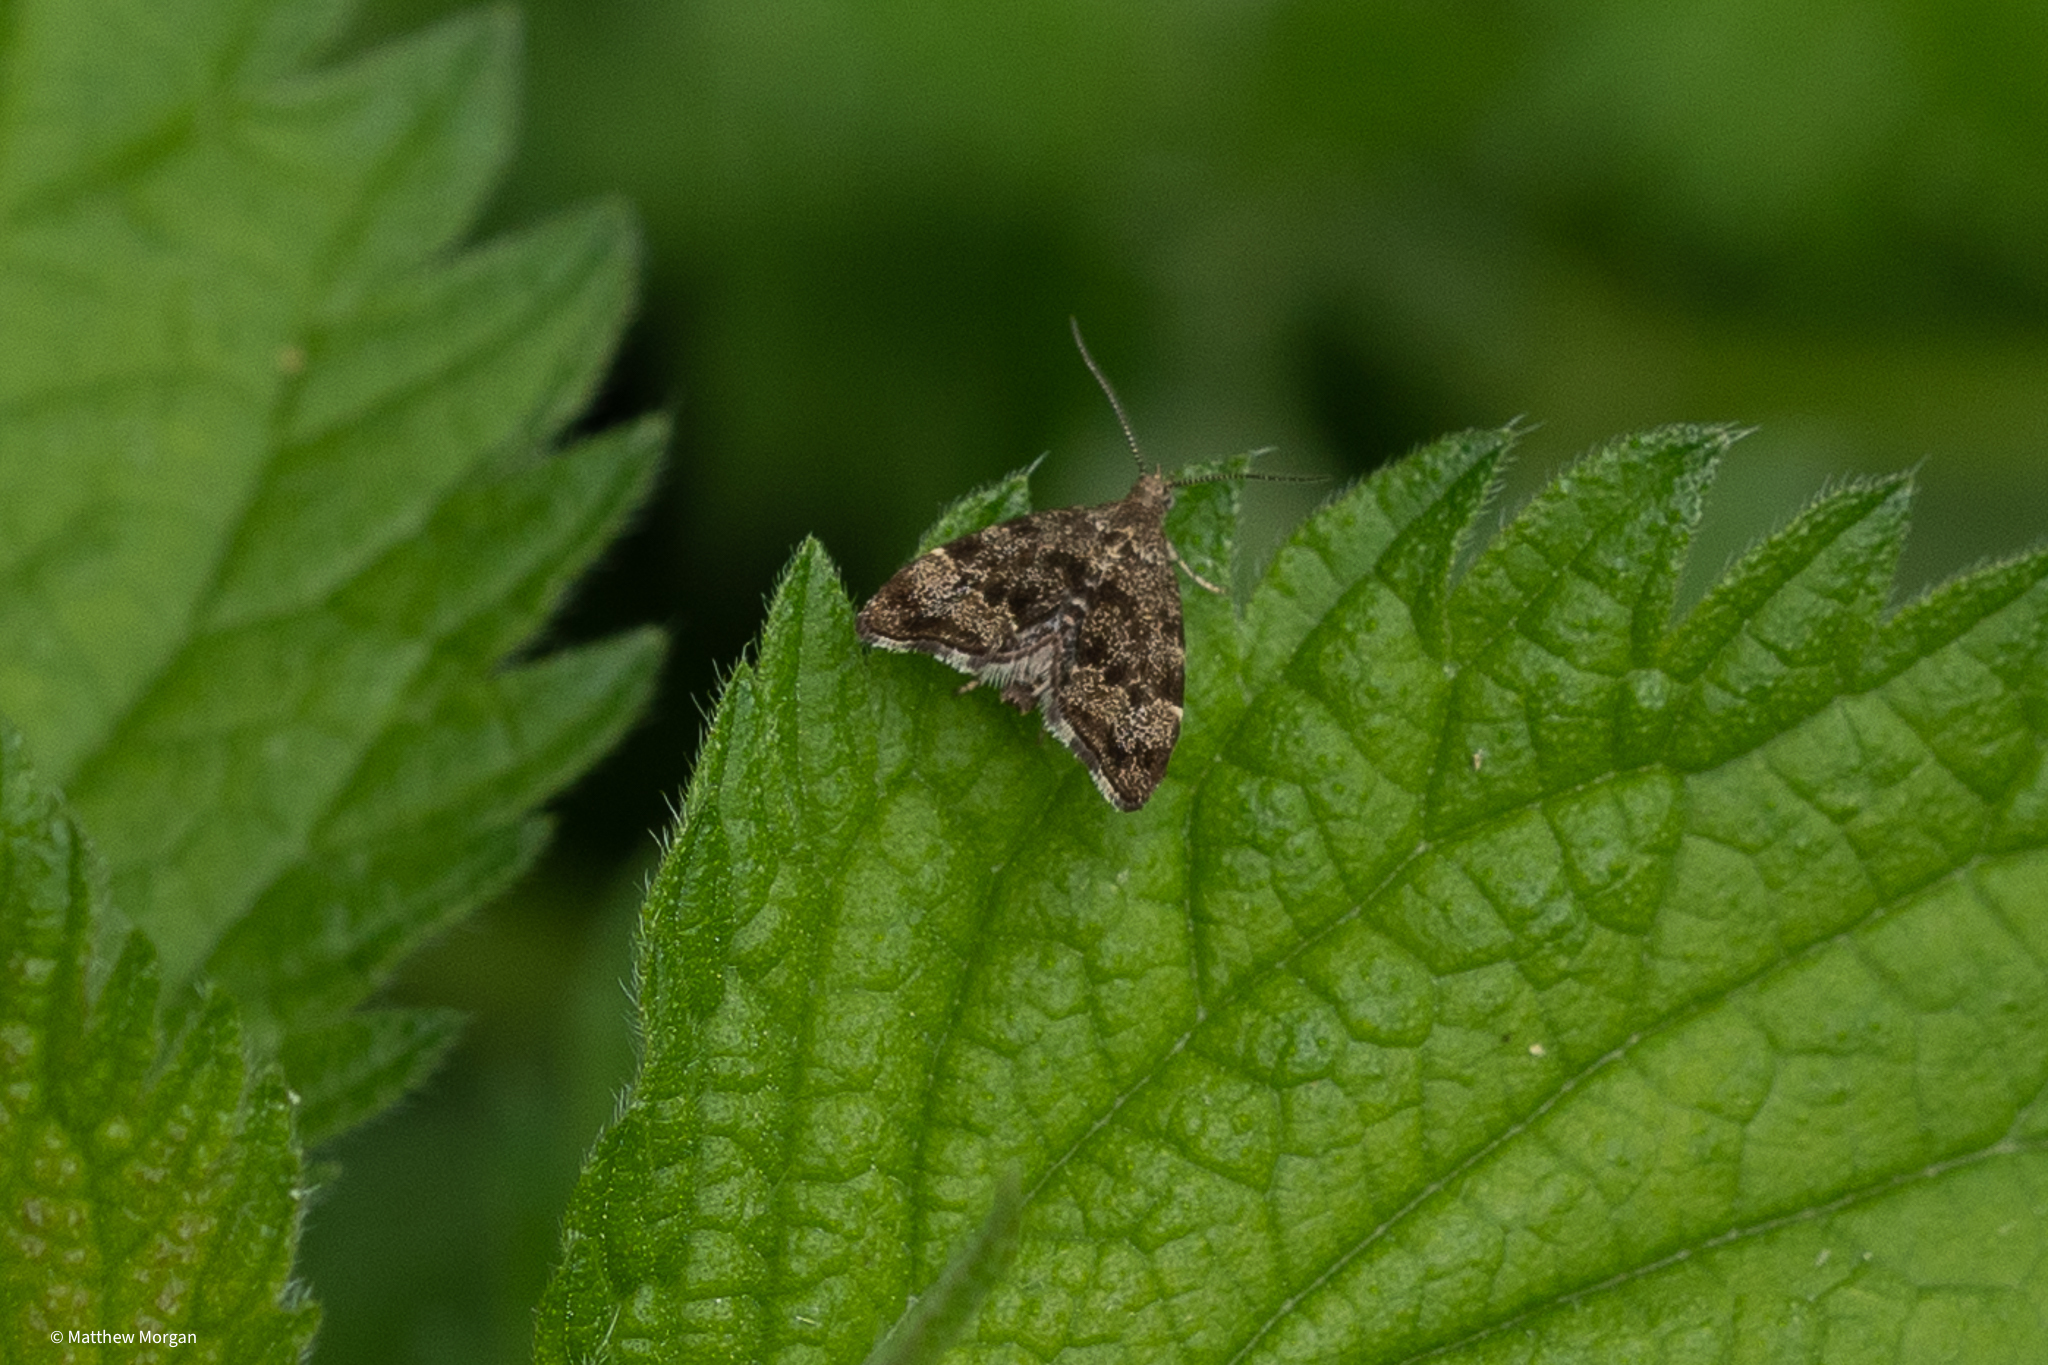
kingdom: Animalia
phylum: Arthropoda
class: Insecta
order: Lepidoptera
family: Choreutidae
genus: Anthophila
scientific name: Anthophila fabriciana
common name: Nettle-tap
